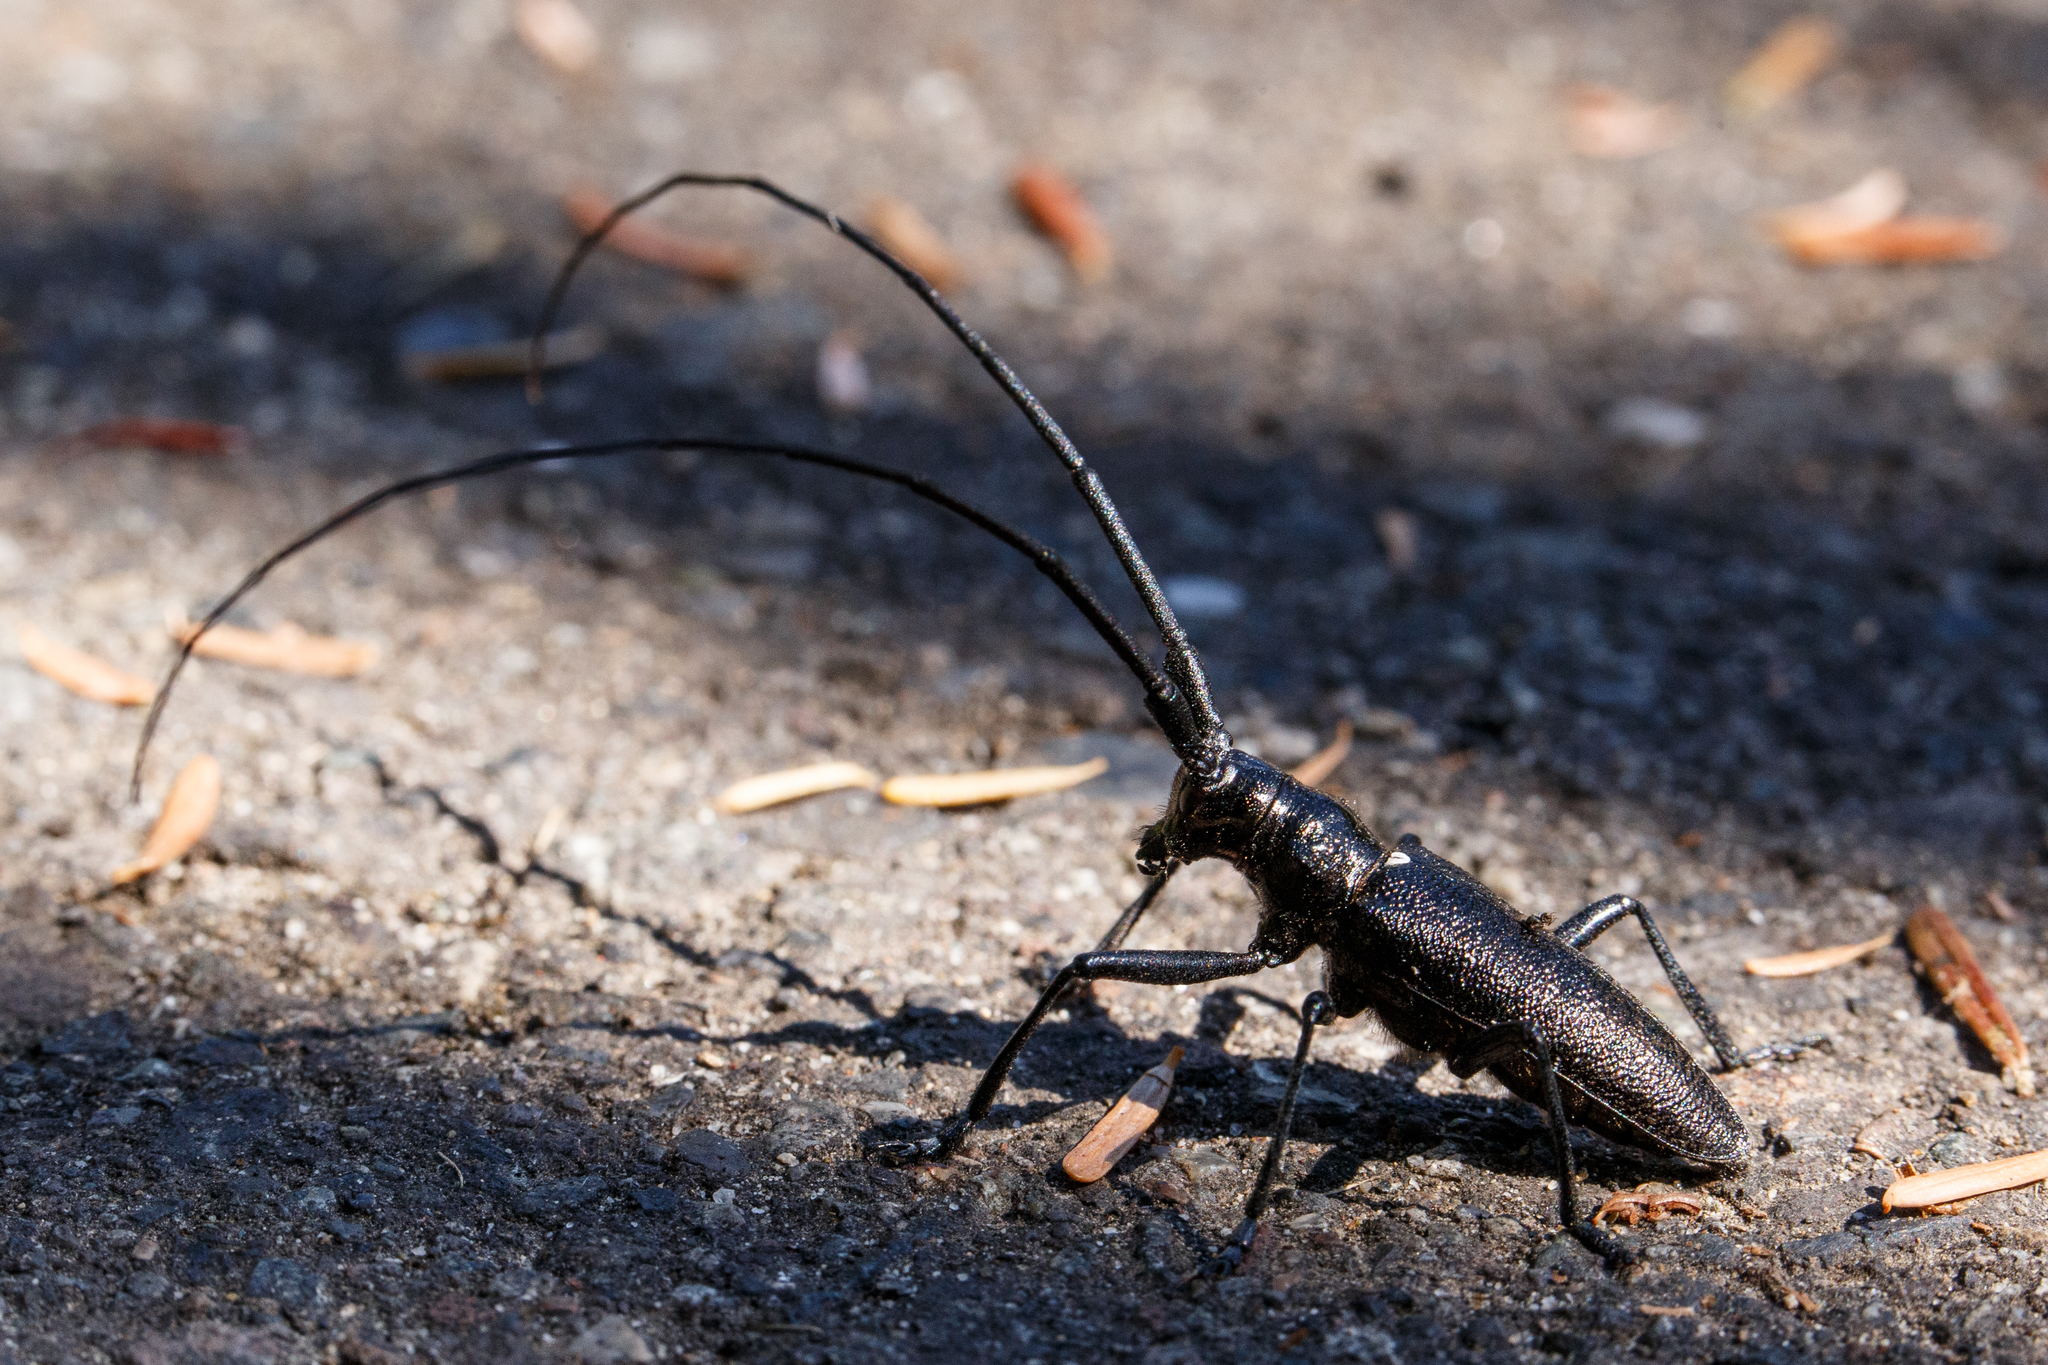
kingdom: Animalia
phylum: Arthropoda
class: Insecta
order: Coleoptera
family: Cerambycidae
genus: Monochamus
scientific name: Monochamus scutellatus
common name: White-spotted sawyer beetle
